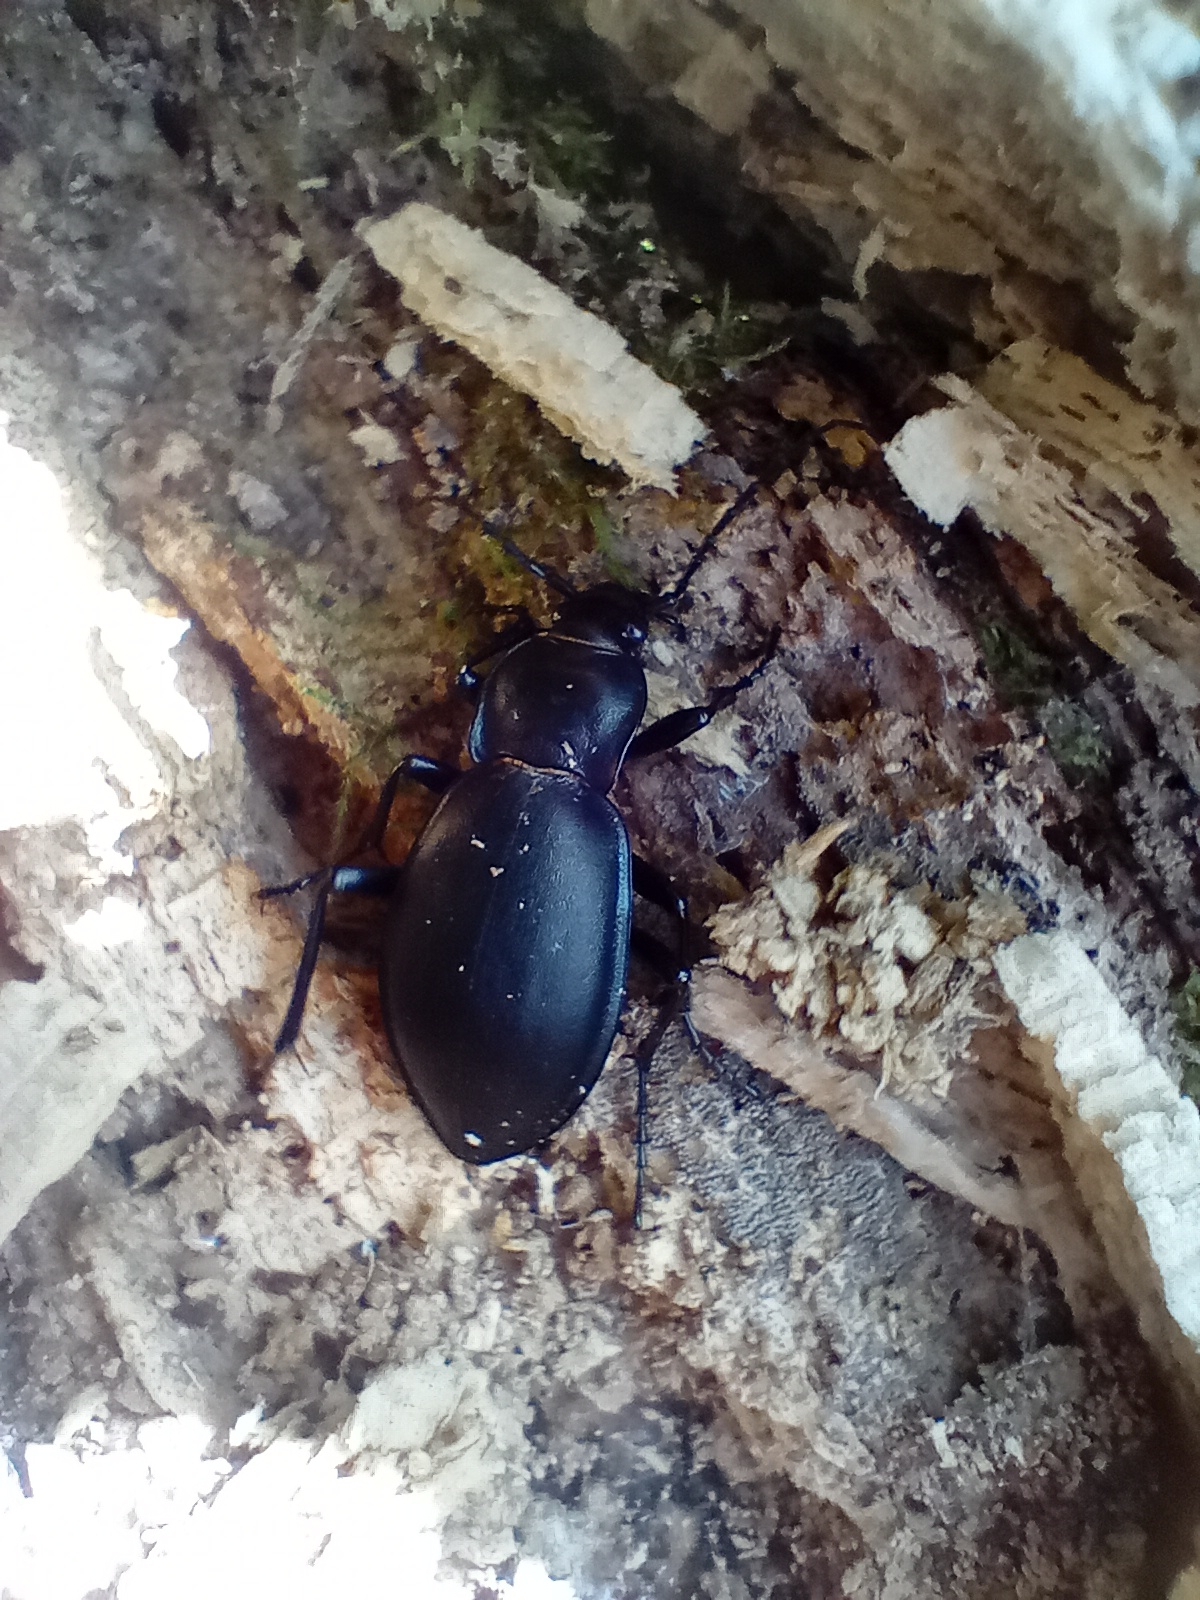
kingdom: Animalia
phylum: Arthropoda
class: Insecta
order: Coleoptera
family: Carabidae
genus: Carabus
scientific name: Carabus violaceus
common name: Violet ground beetle
